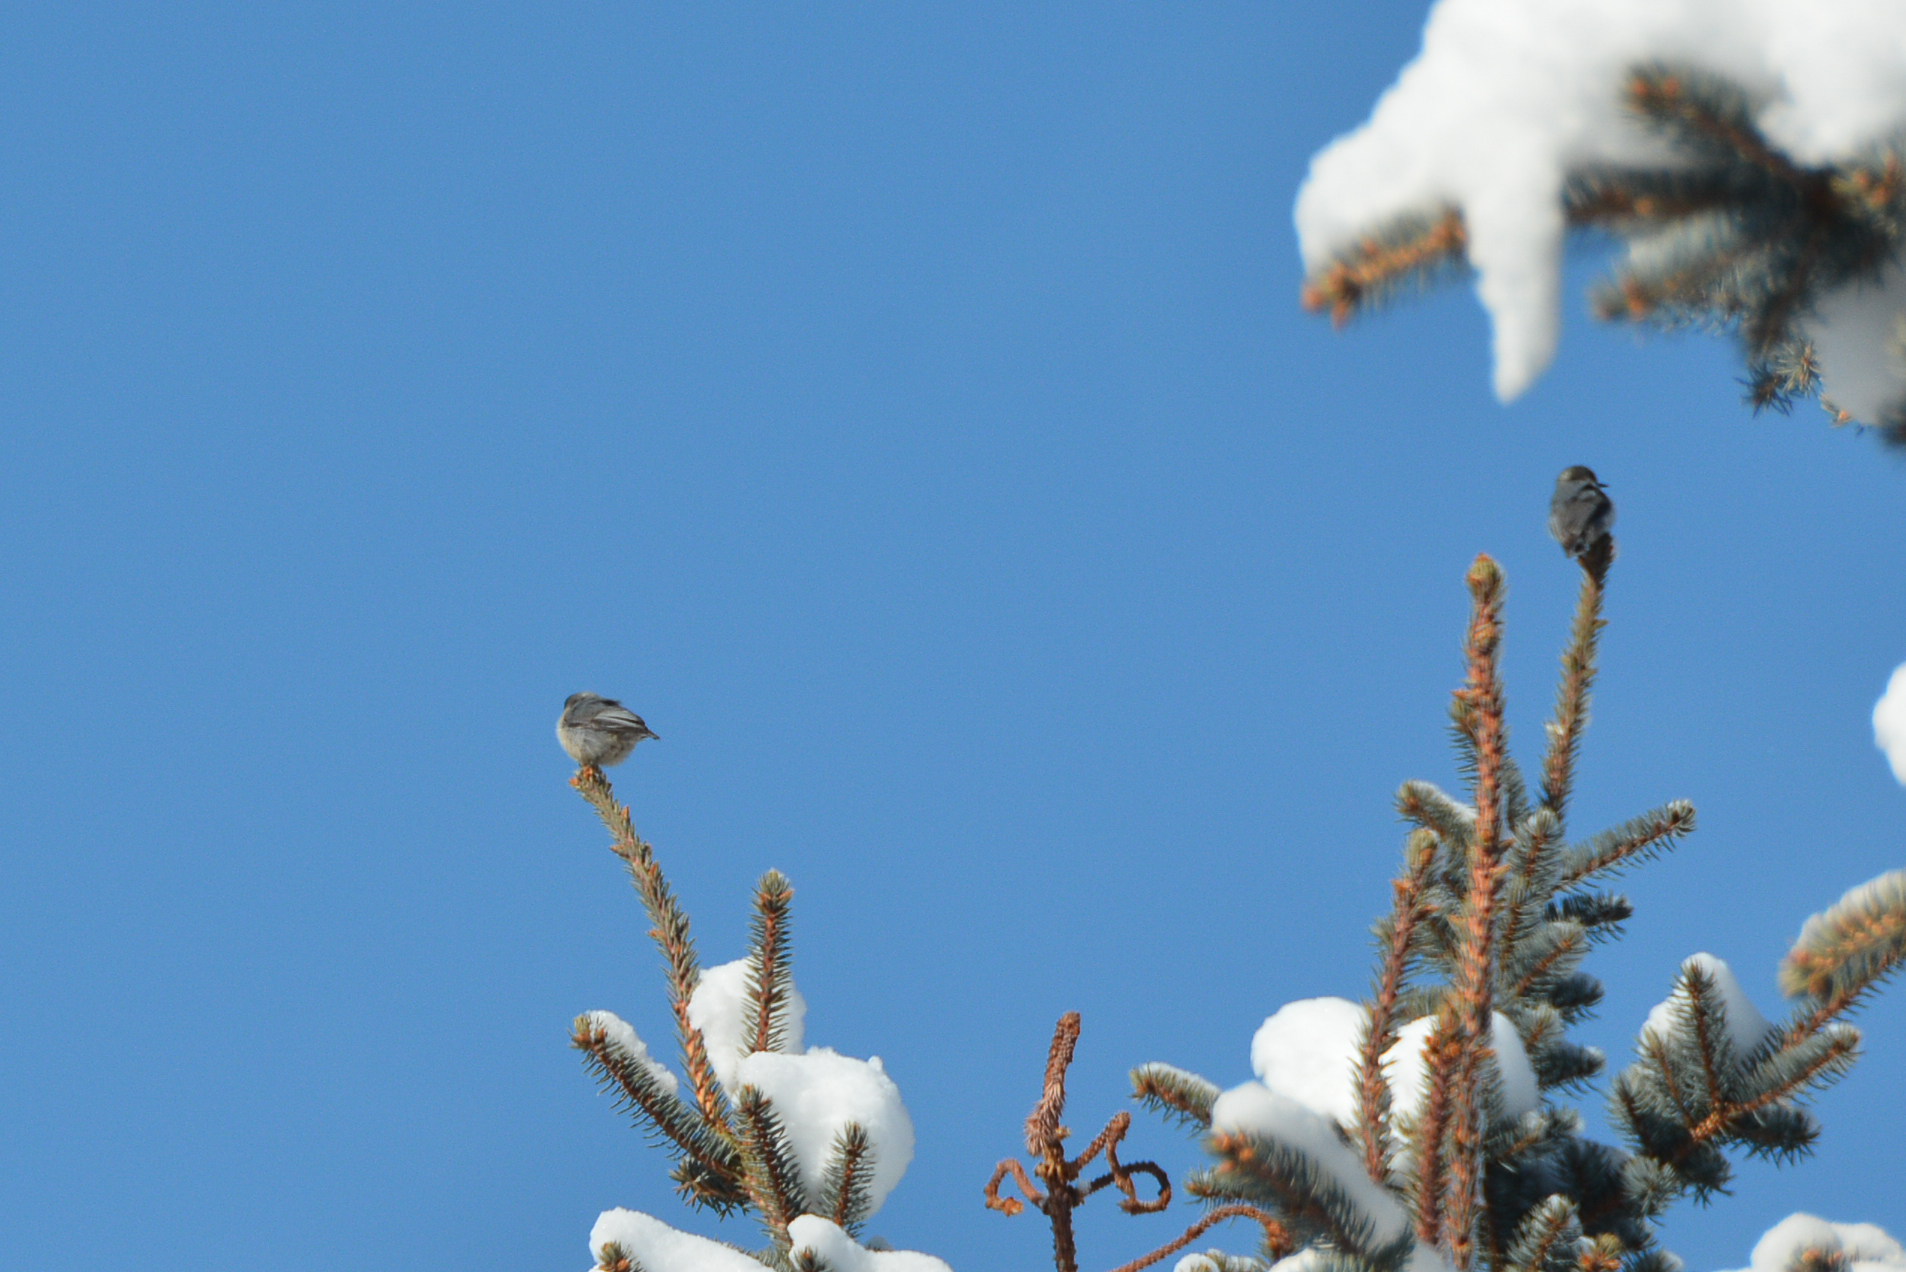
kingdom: Animalia
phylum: Chordata
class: Aves
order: Passeriformes
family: Sittidae
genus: Sitta
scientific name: Sitta pygmaea
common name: Pygmy nuthatch
